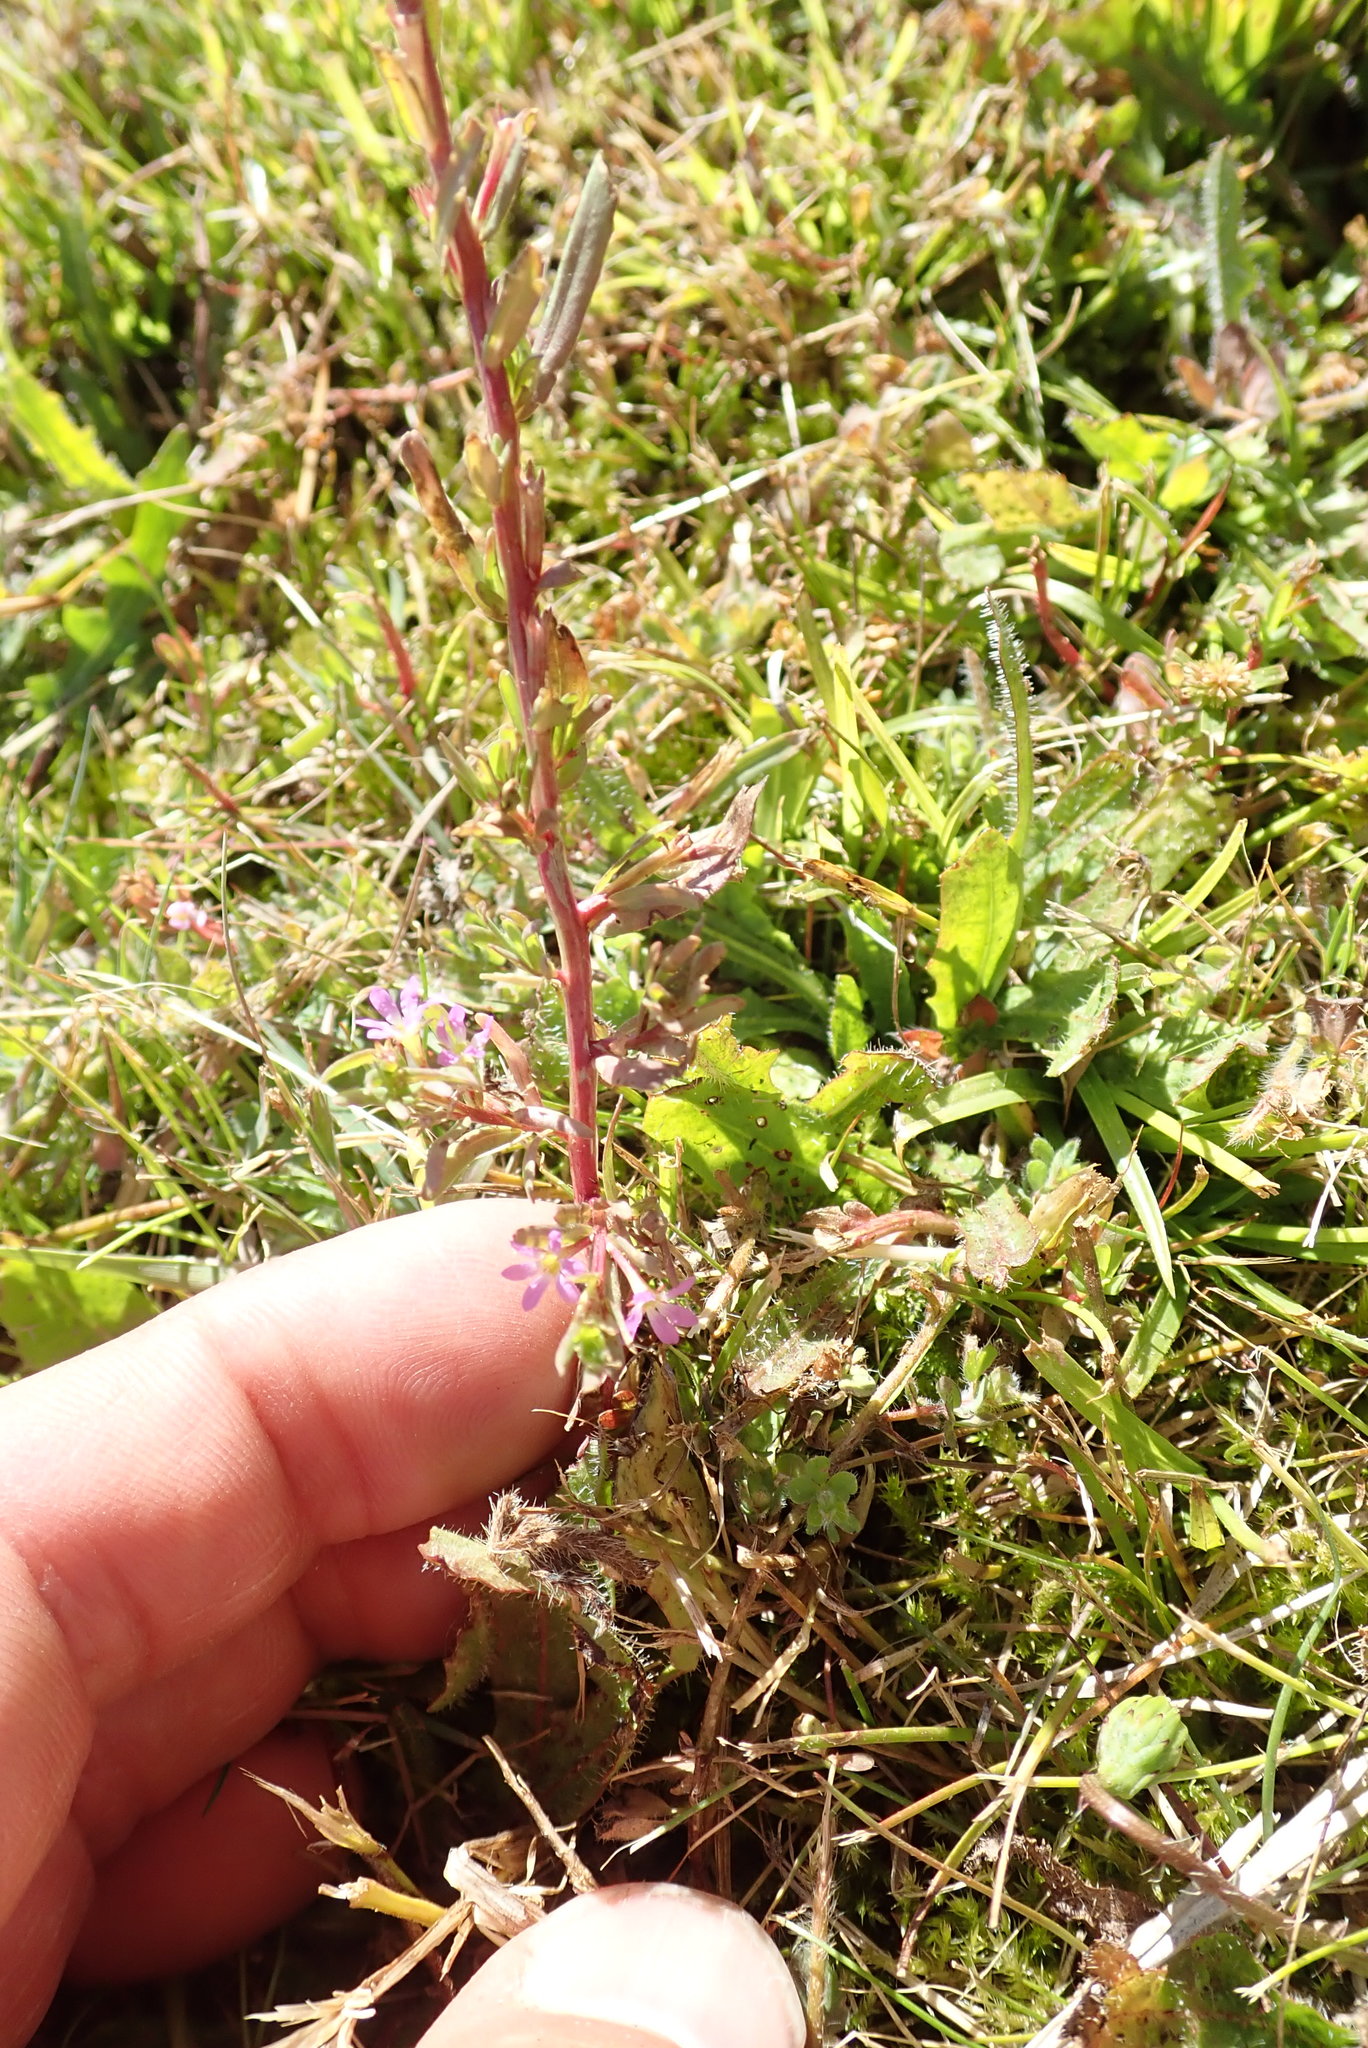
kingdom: Plantae
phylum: Tracheophyta
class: Magnoliopsida
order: Myrtales
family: Lythraceae
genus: Lythrum
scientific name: Lythrum hyssopifolia
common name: Grass-poly
